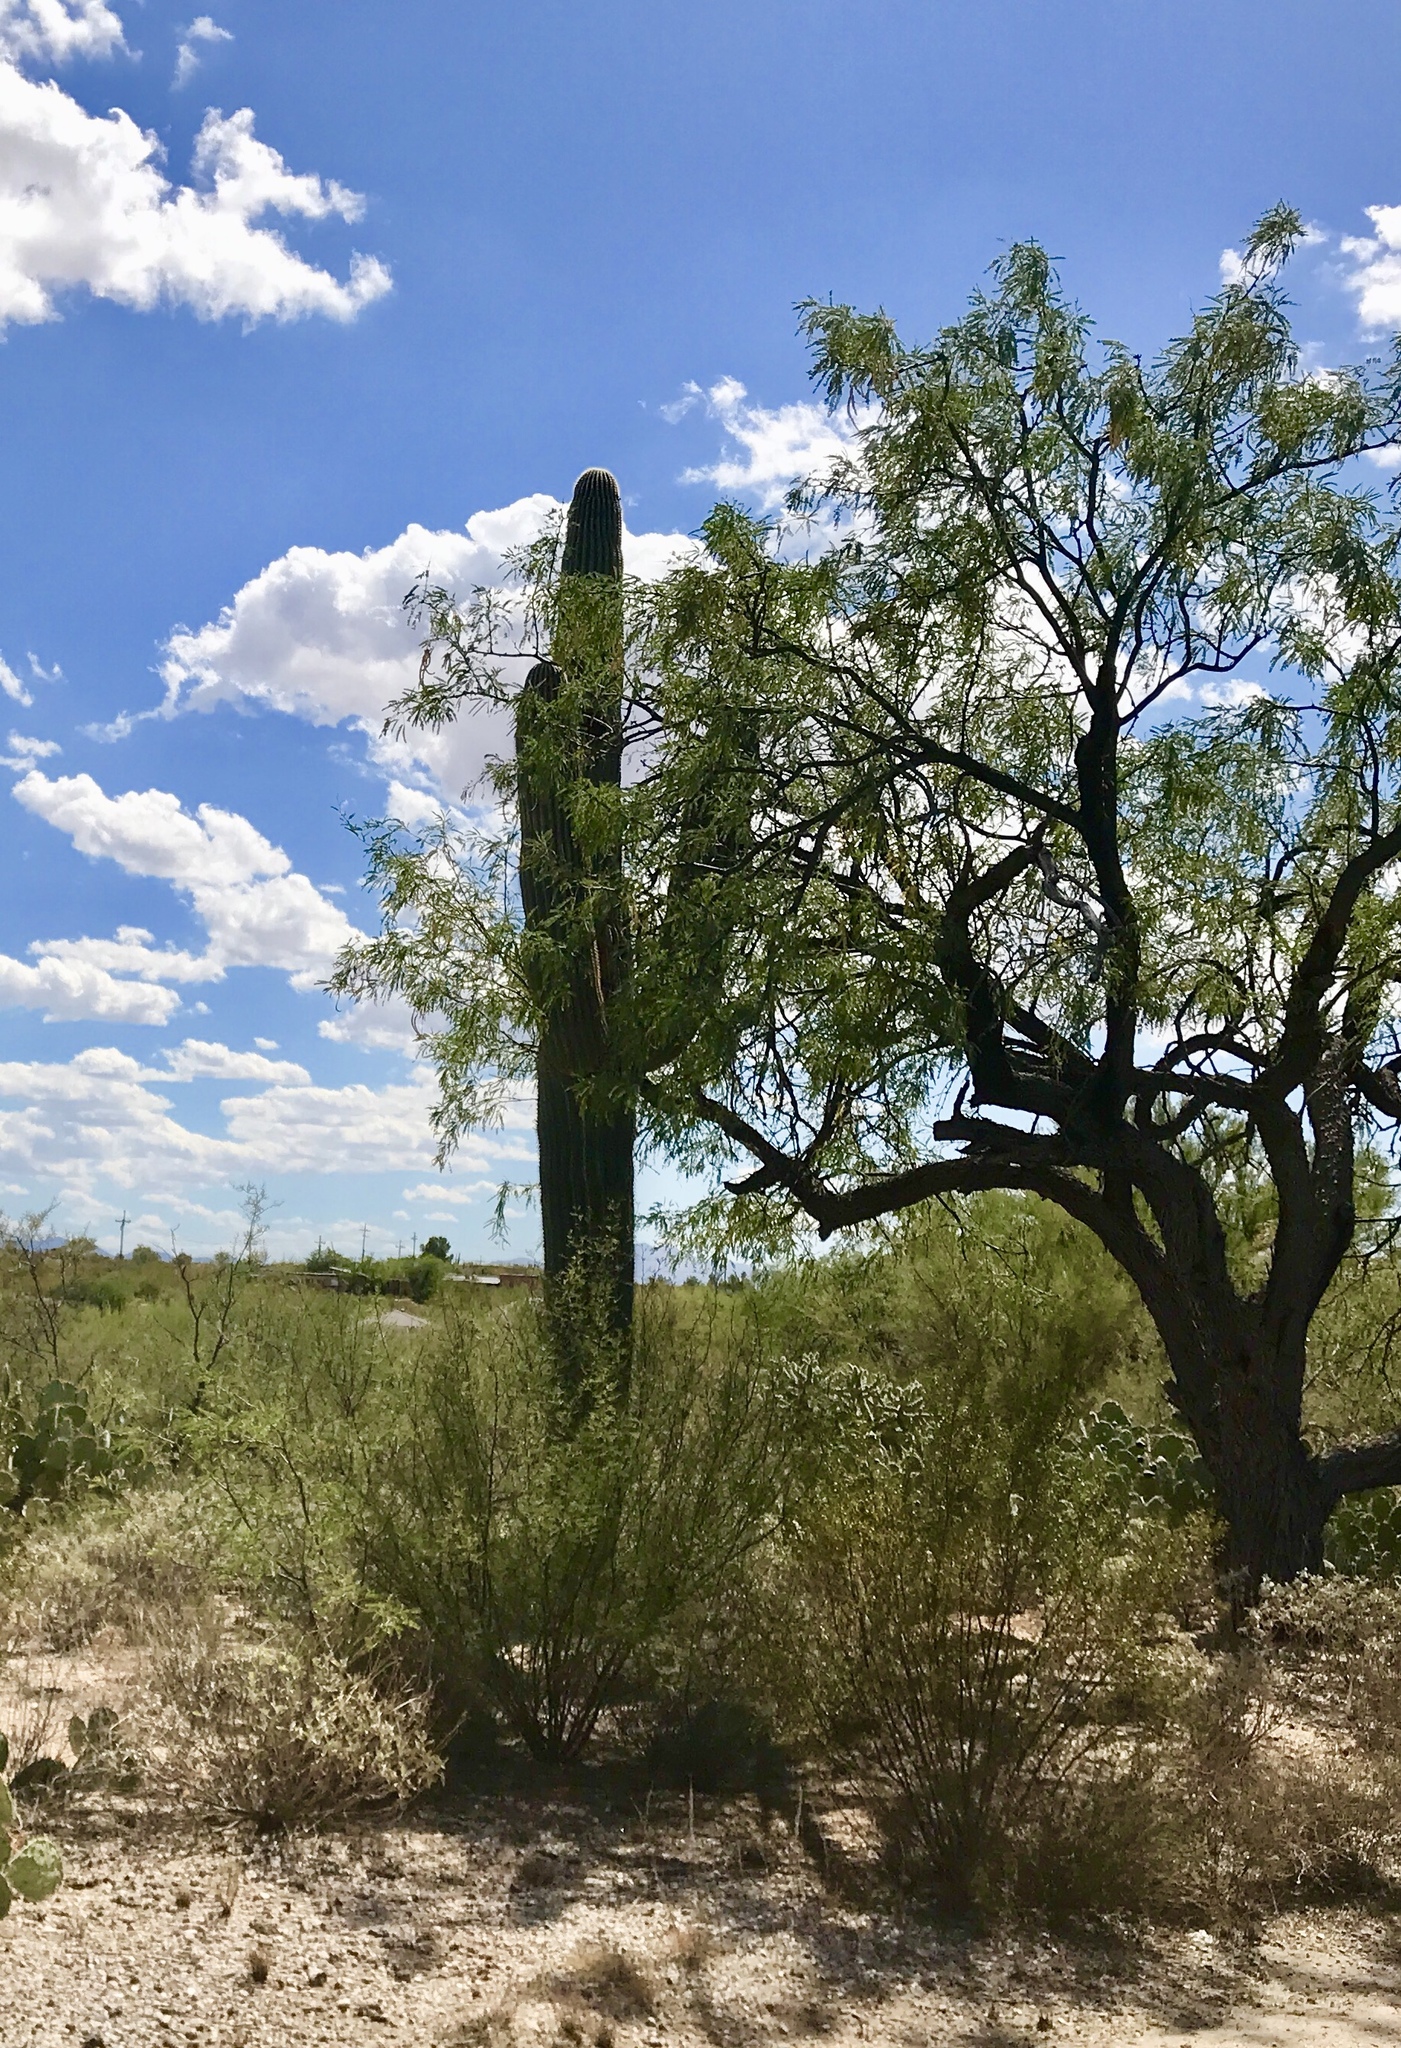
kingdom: Plantae
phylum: Tracheophyta
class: Magnoliopsida
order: Caryophyllales
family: Cactaceae
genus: Carnegiea
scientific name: Carnegiea gigantea
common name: Saguaro
